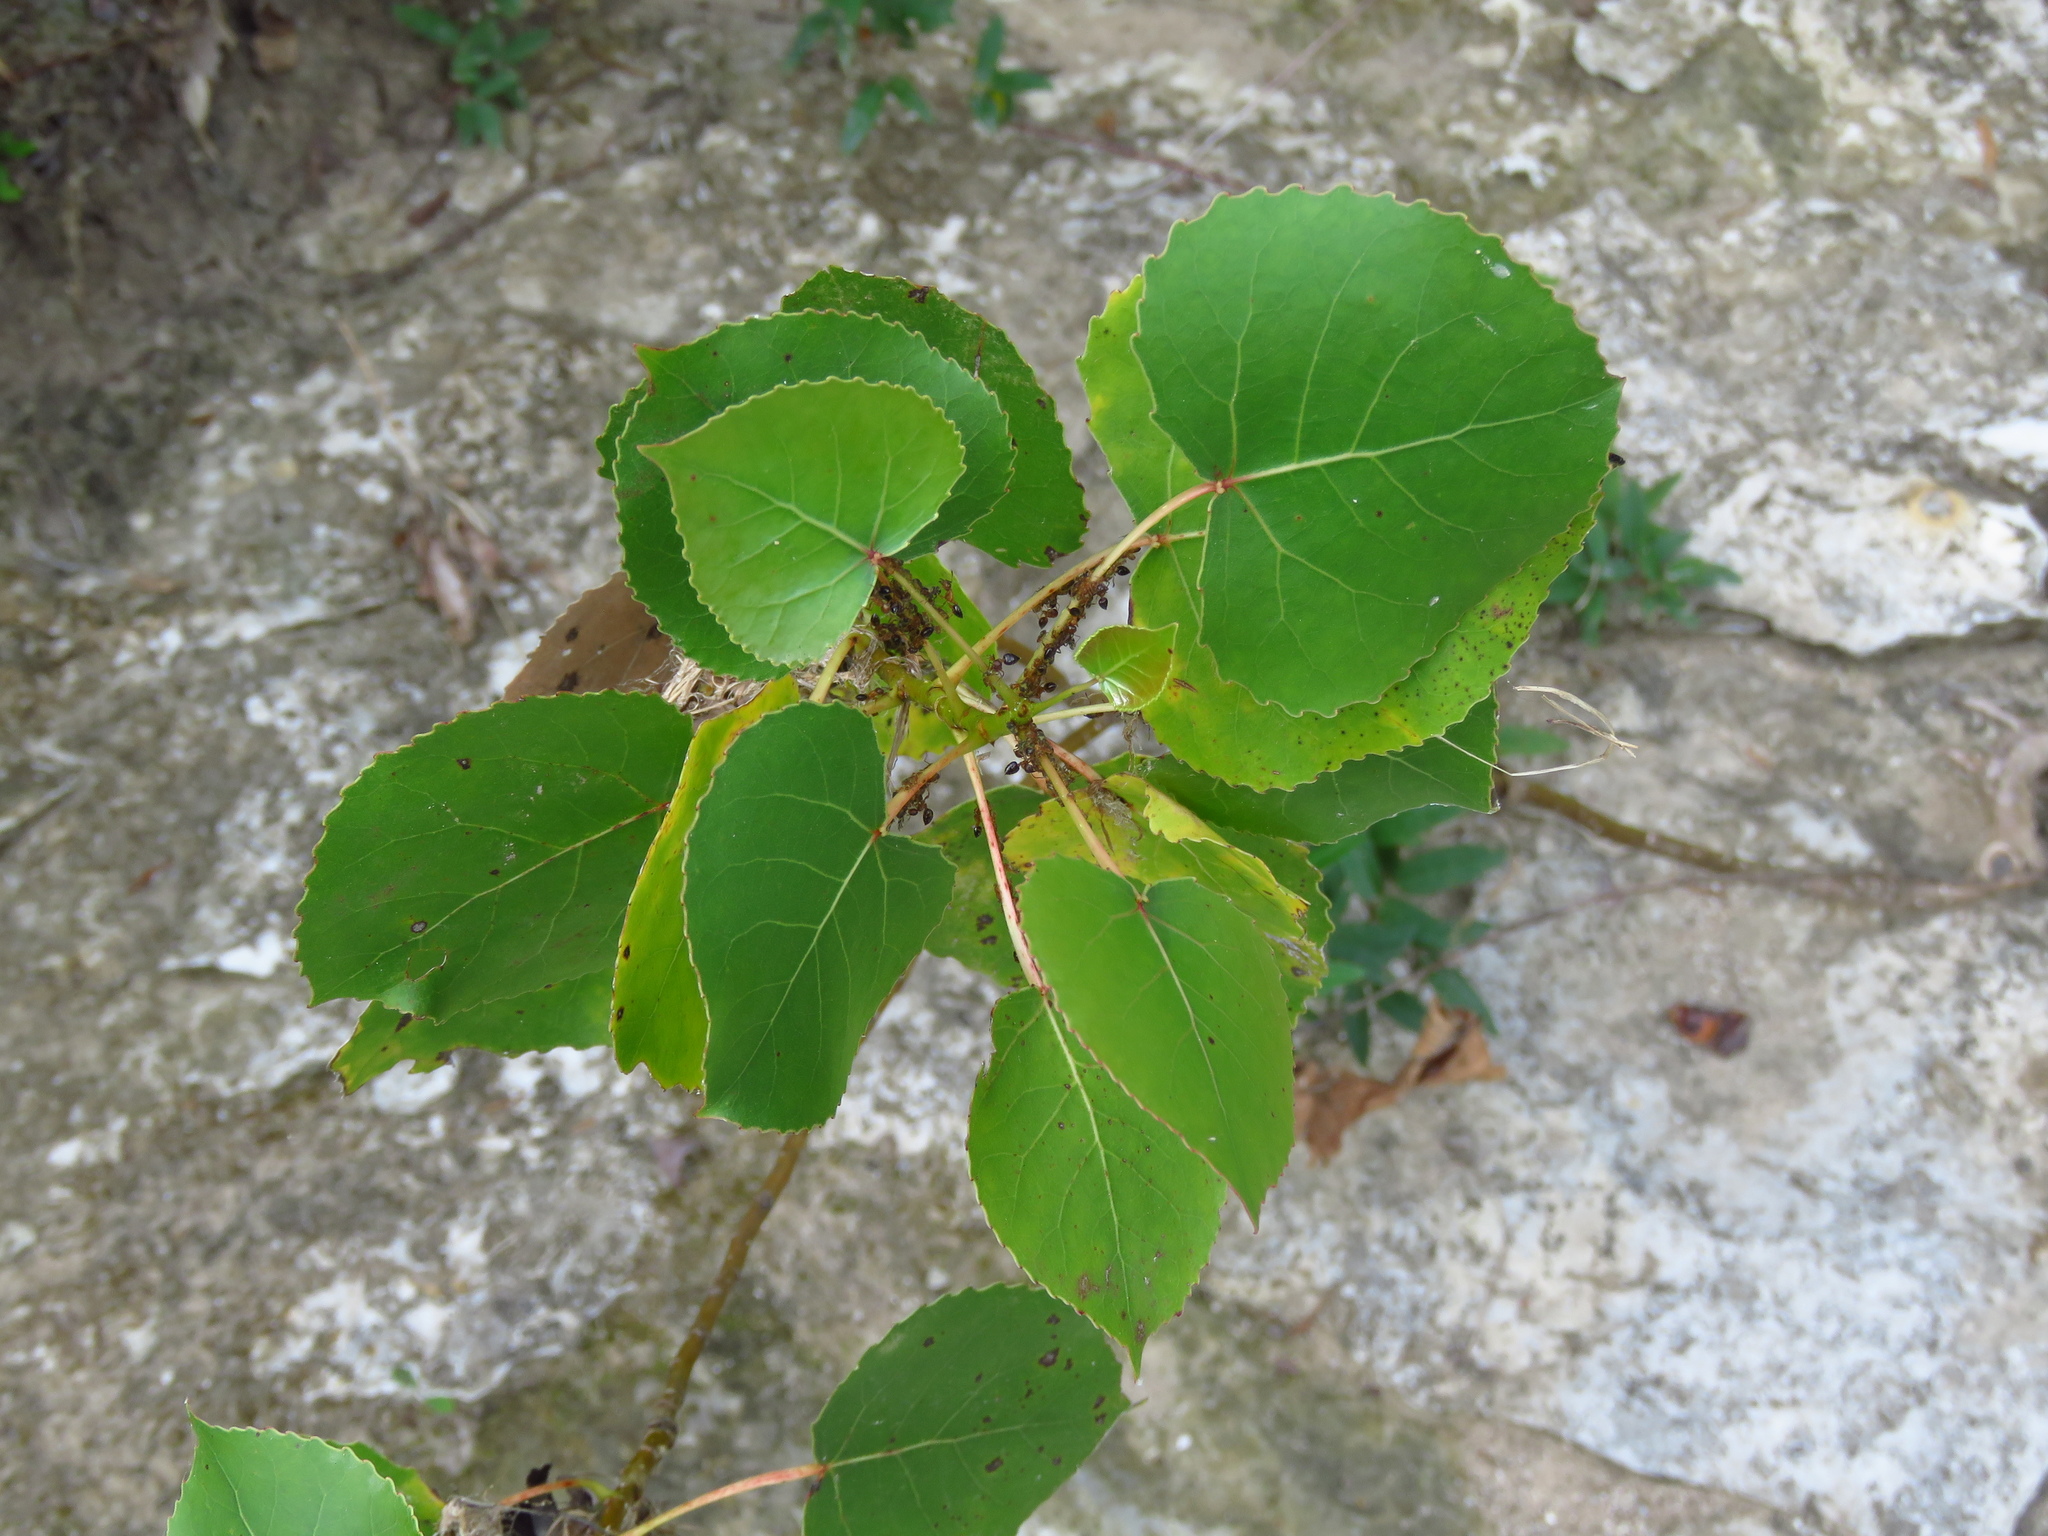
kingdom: Plantae
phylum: Tracheophyta
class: Magnoliopsida
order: Malpighiales
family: Salicaceae
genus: Populus
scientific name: Populus deltoides
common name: Eastern cottonwood
